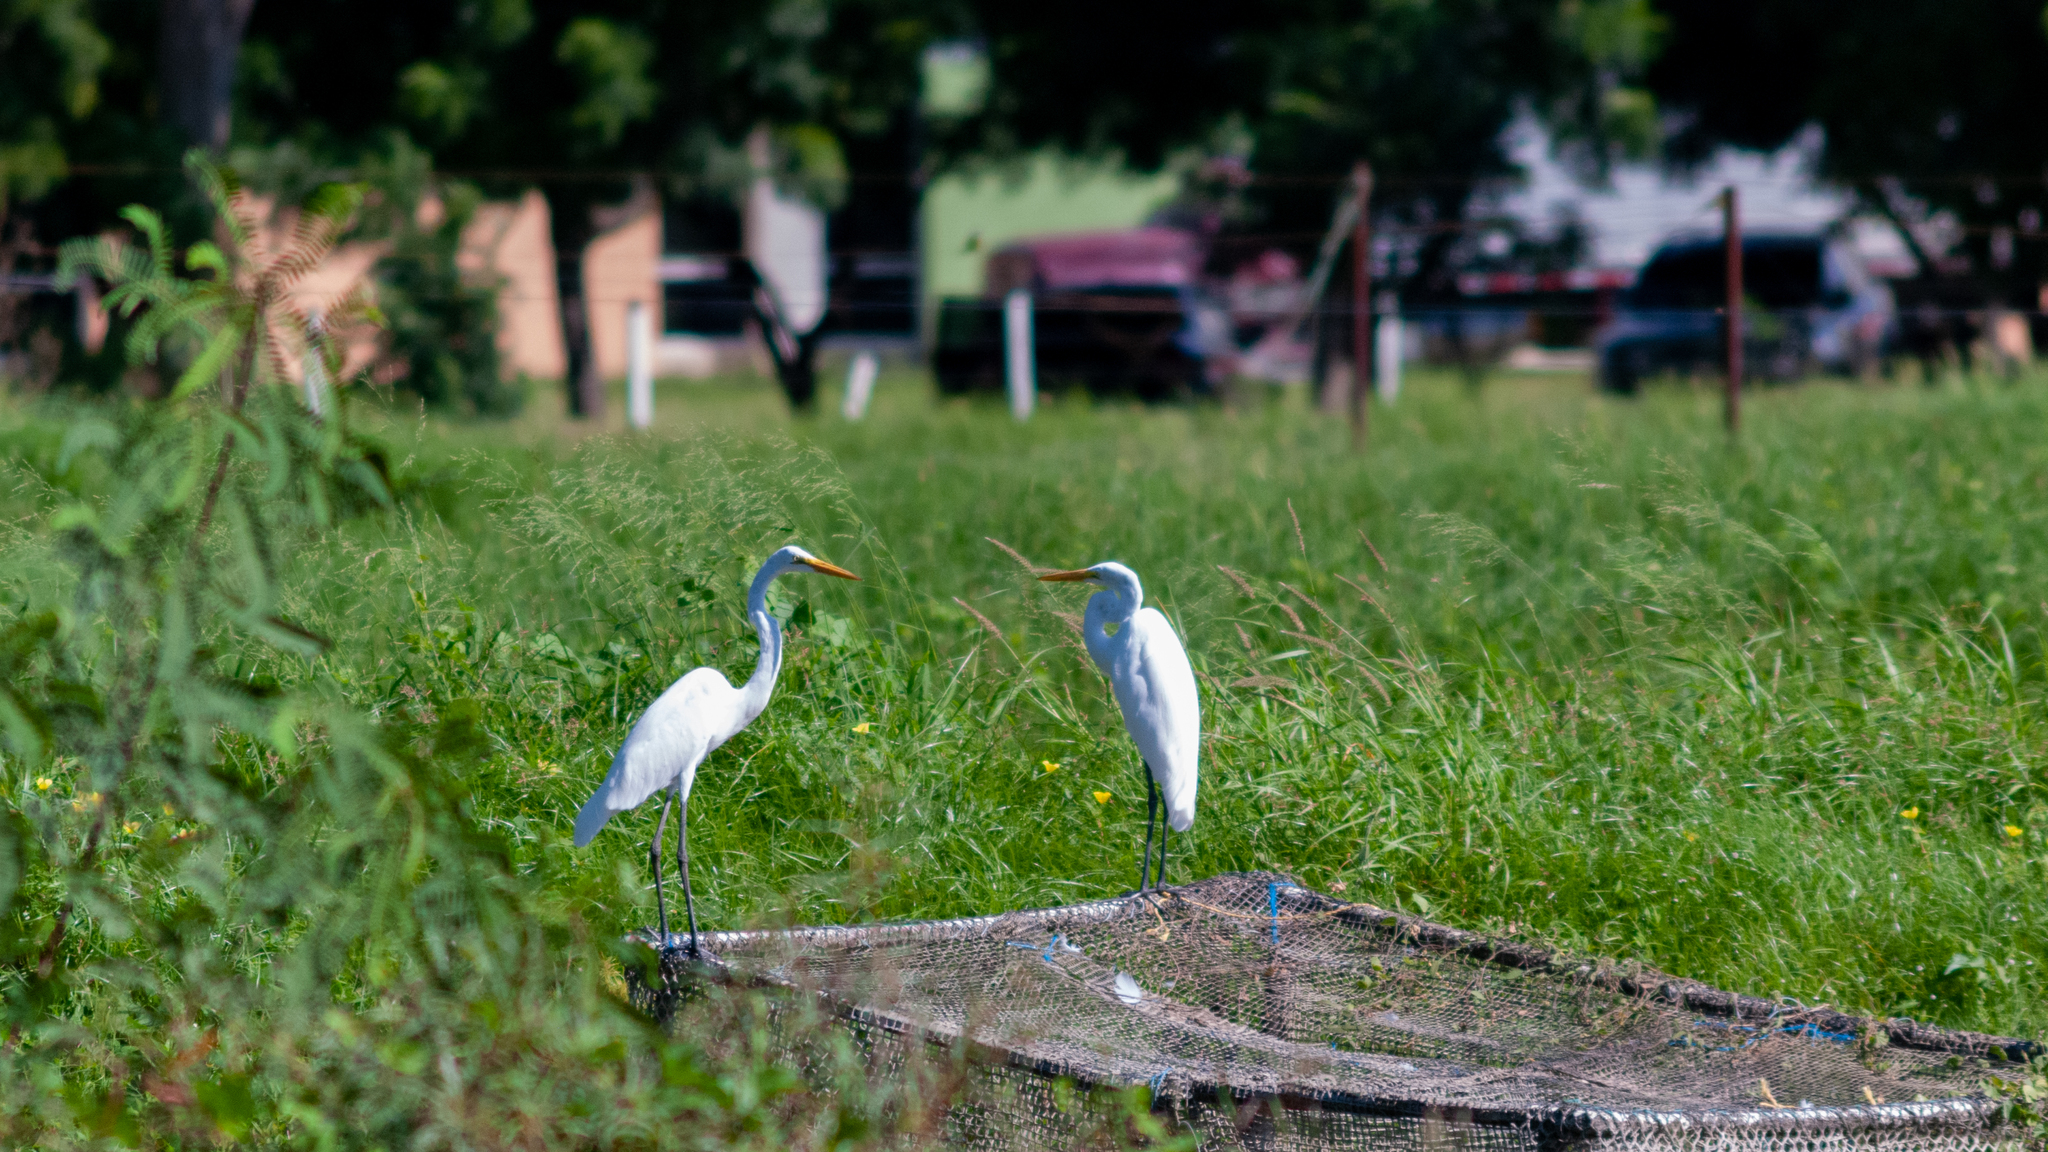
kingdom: Animalia
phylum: Chordata
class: Aves
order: Pelecaniformes
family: Ardeidae
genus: Ardea
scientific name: Ardea alba
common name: Great egret
